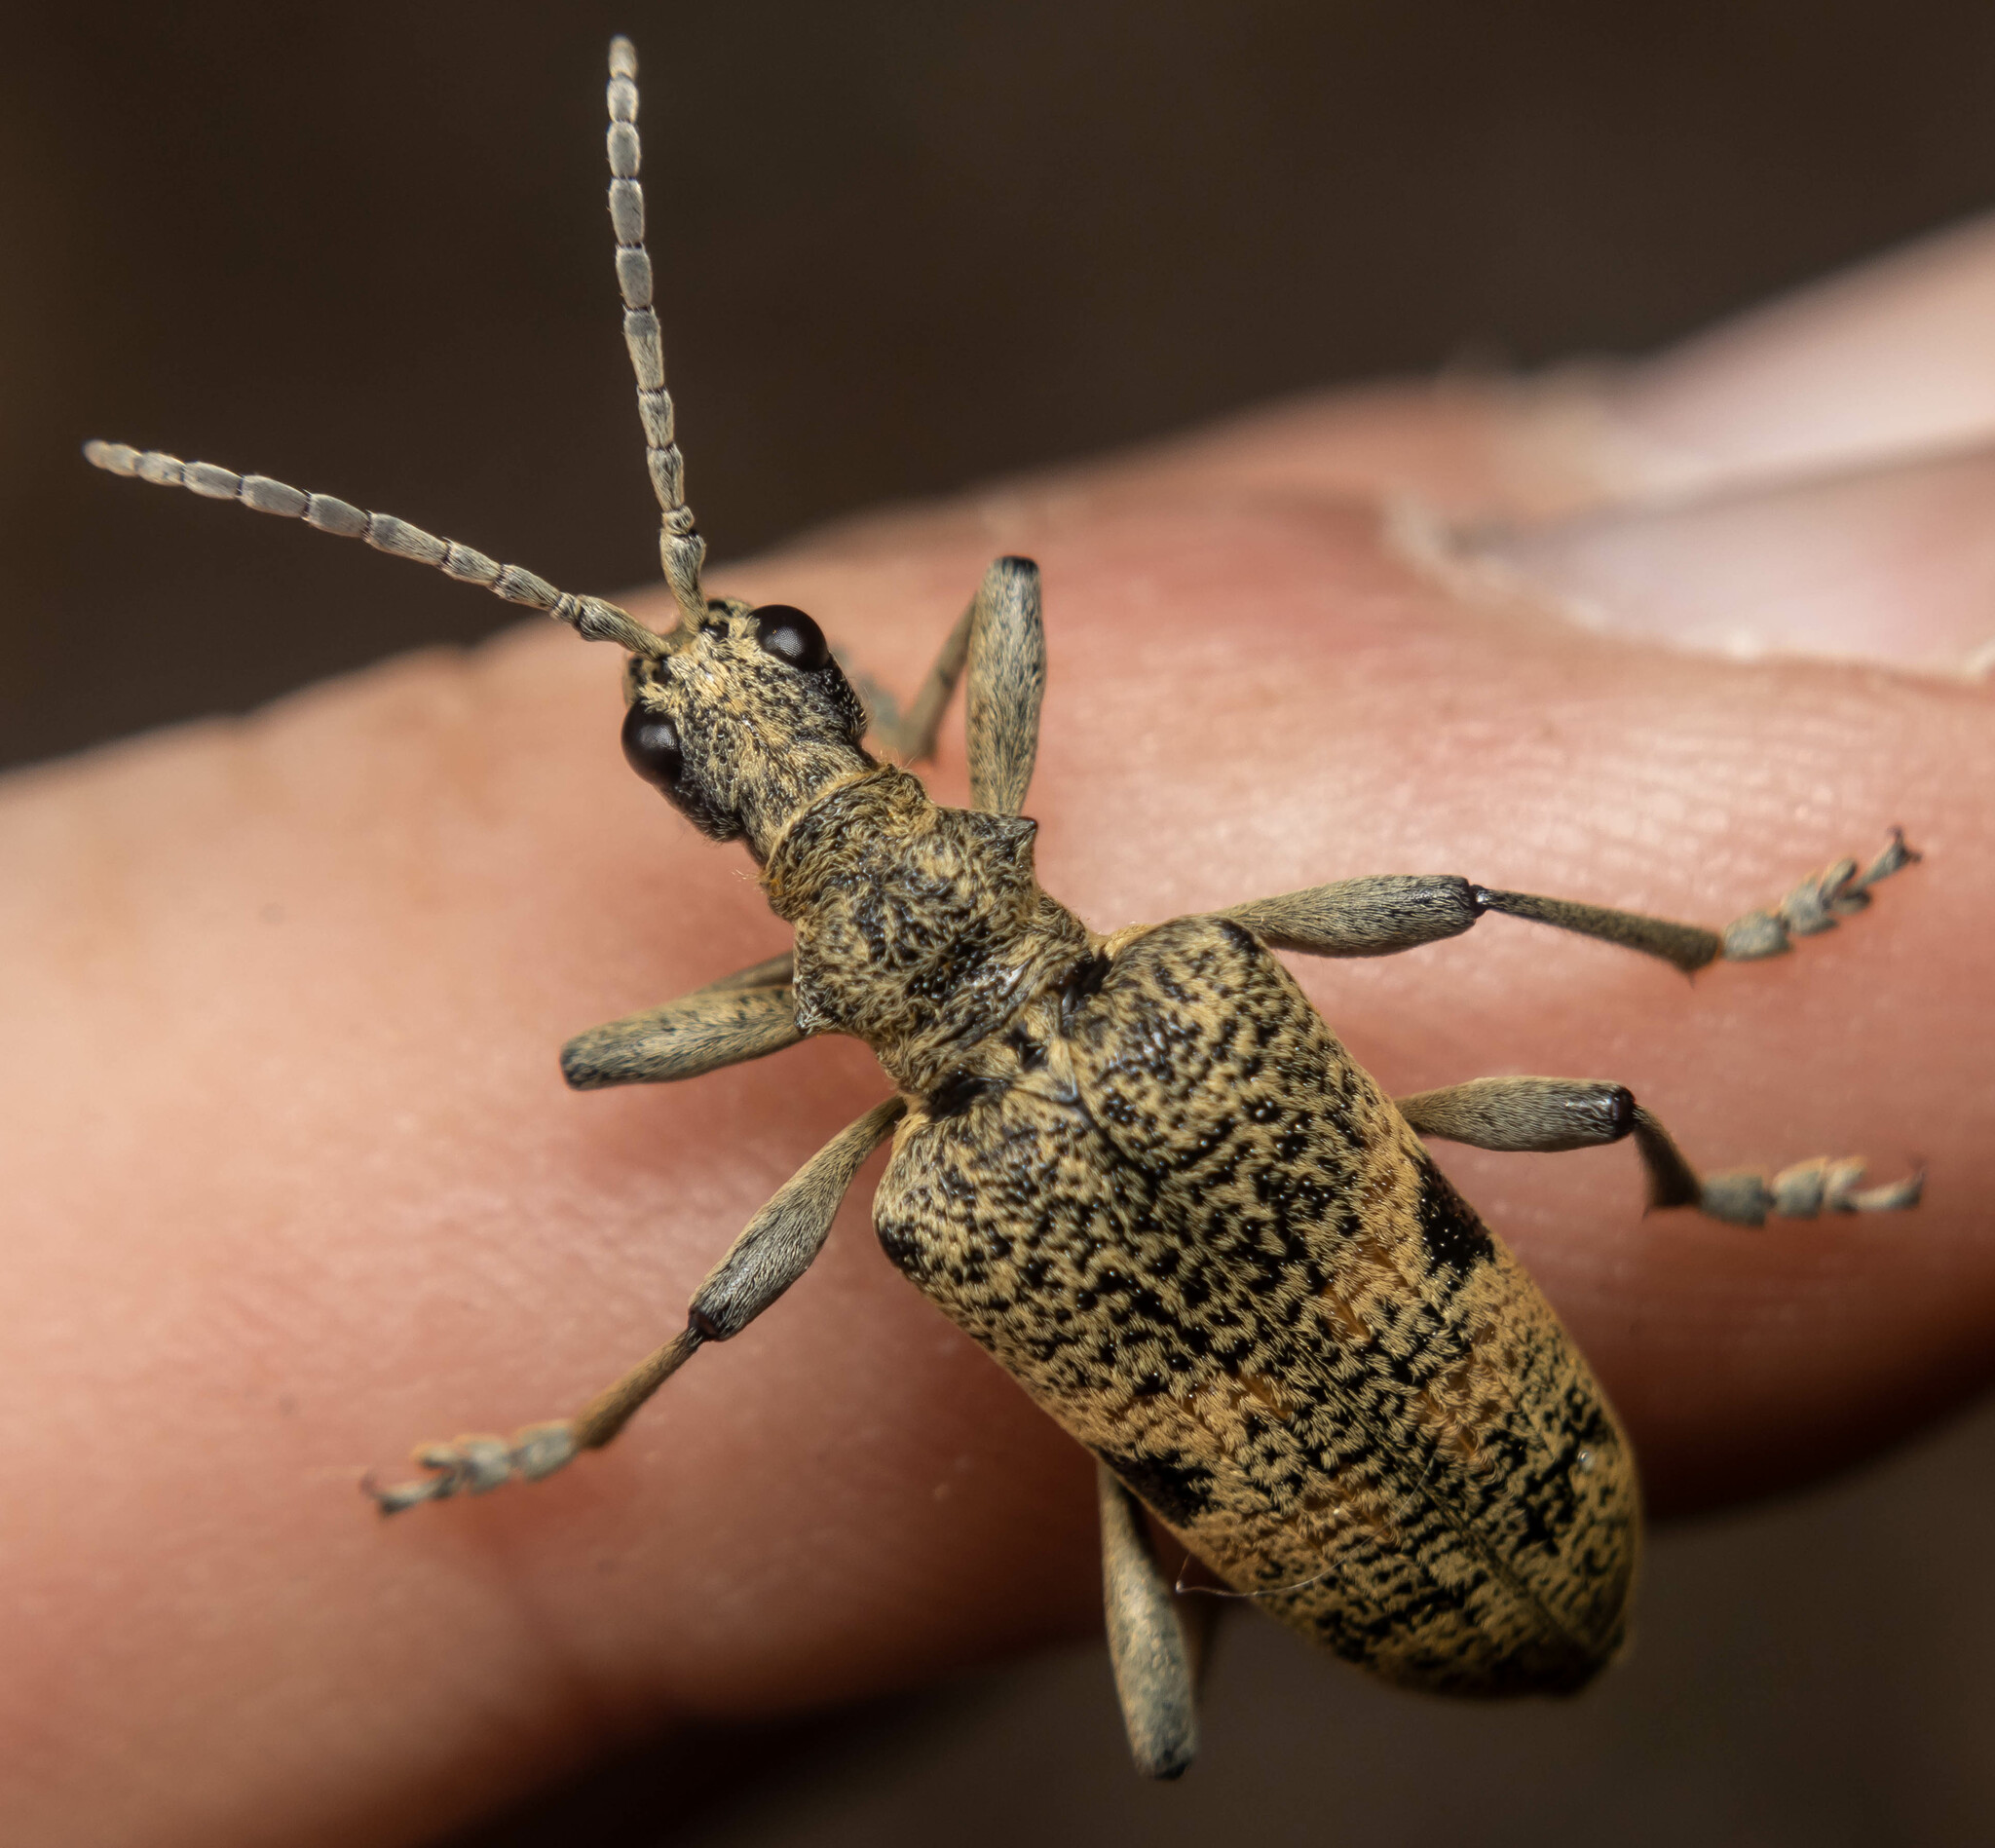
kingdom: Animalia
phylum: Arthropoda
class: Insecta
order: Coleoptera
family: Cerambycidae
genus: Rhagium
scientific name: Rhagium mordax
